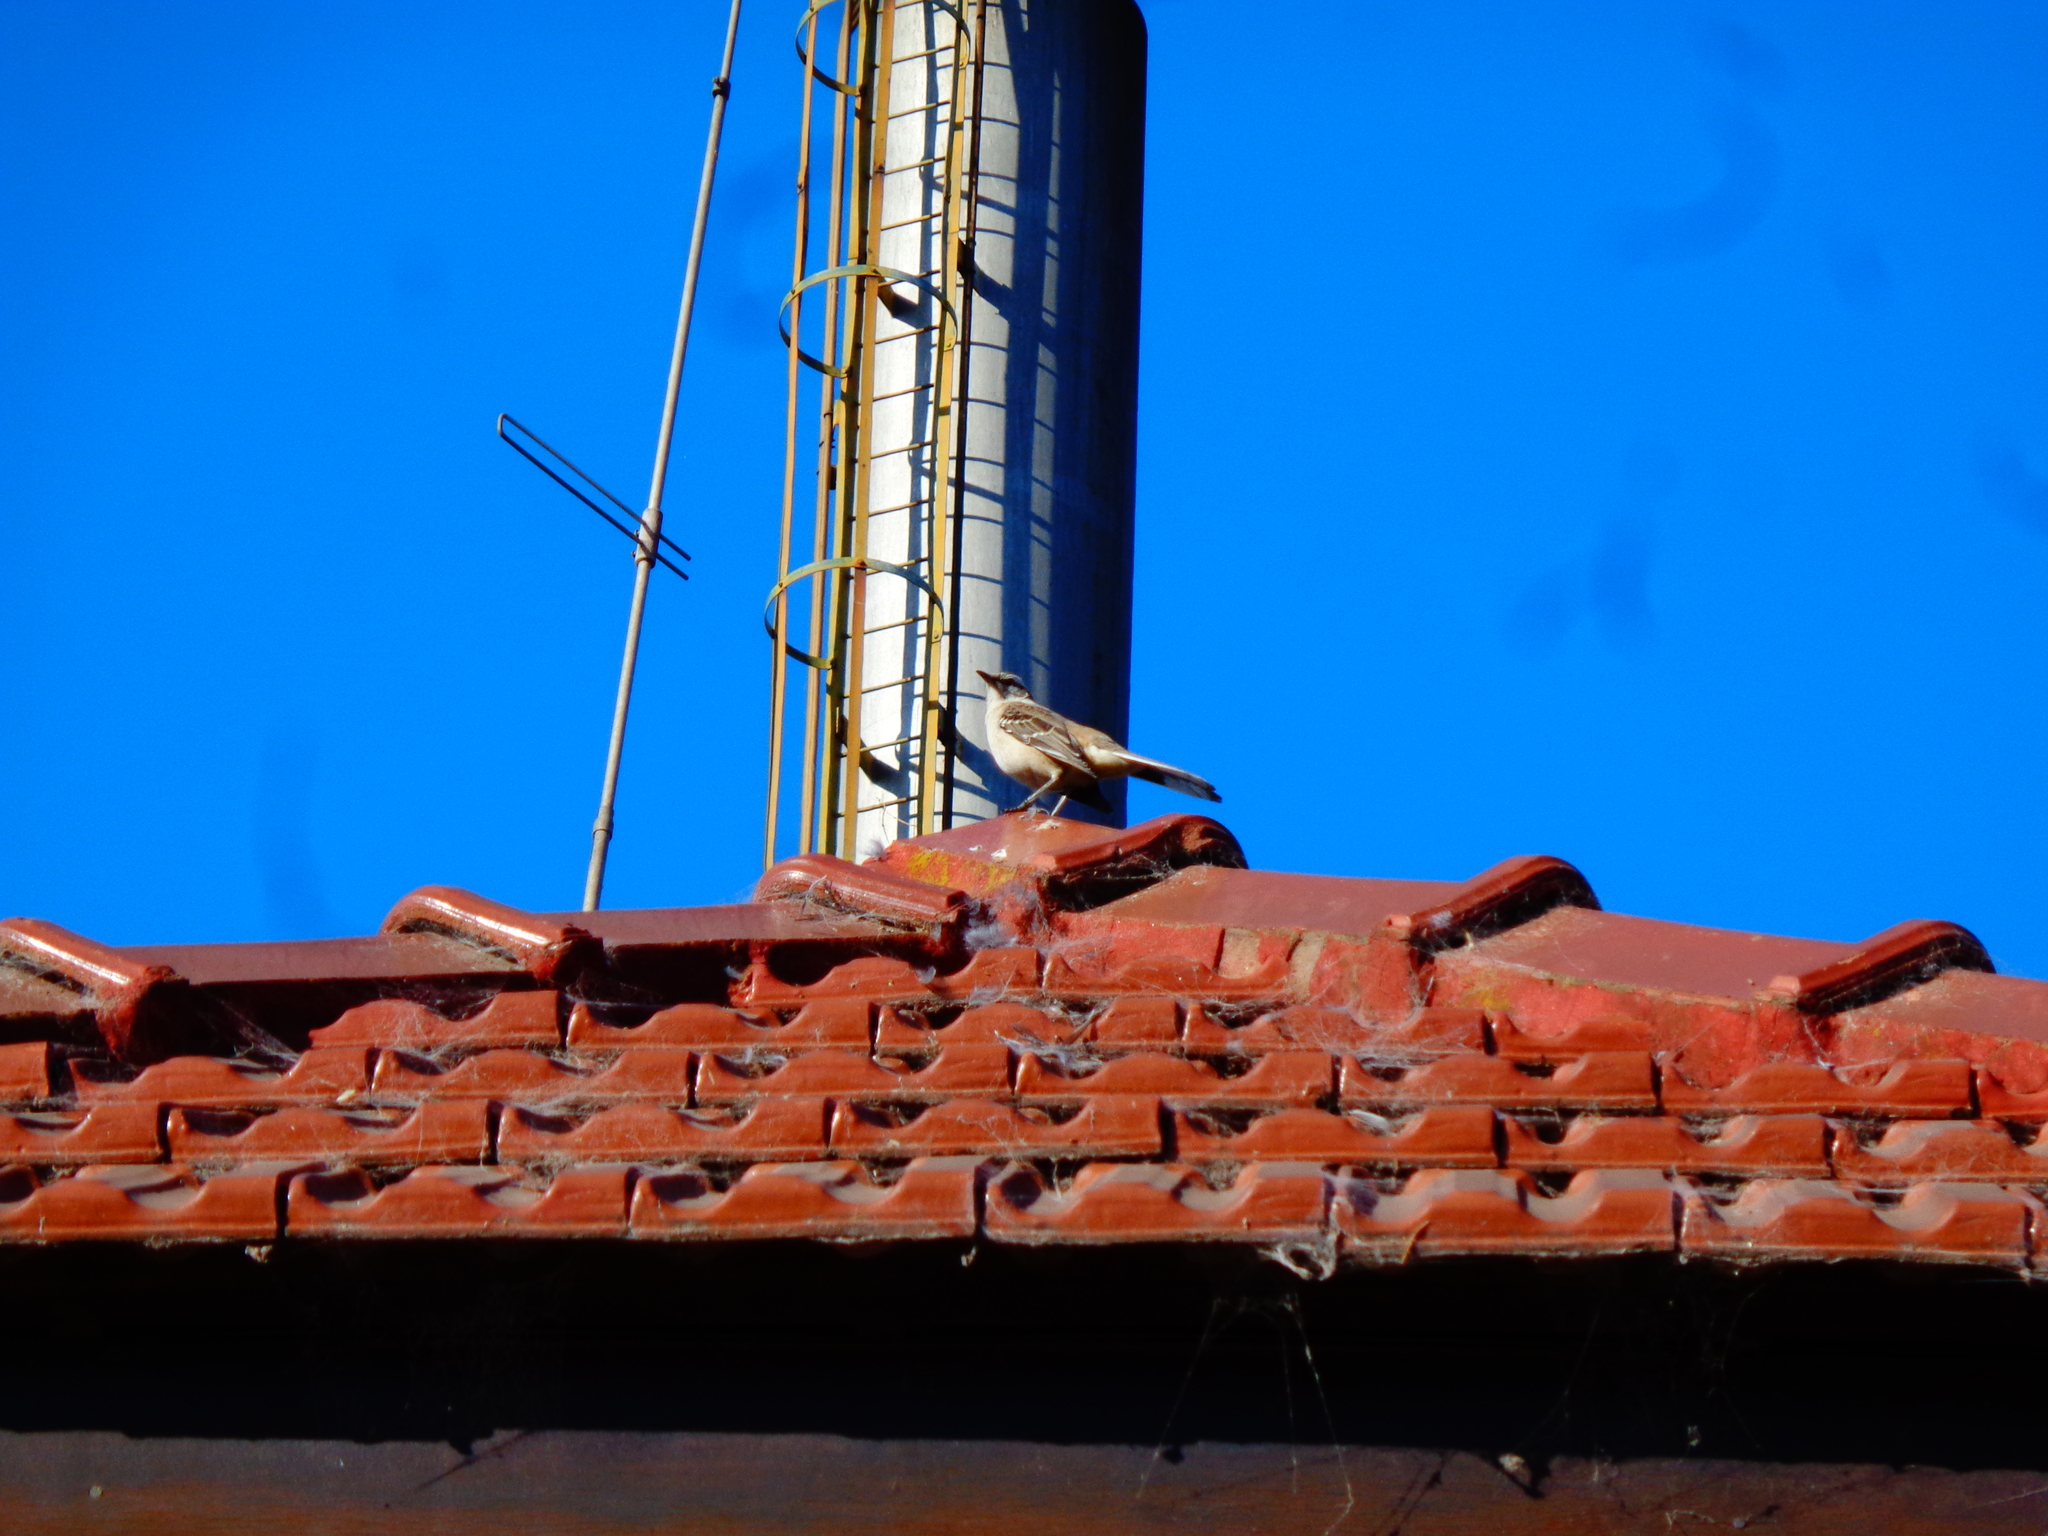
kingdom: Animalia
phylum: Chordata
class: Aves
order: Passeriformes
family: Mimidae
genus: Mimus
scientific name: Mimus saturninus
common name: Chalk-browed mockingbird
